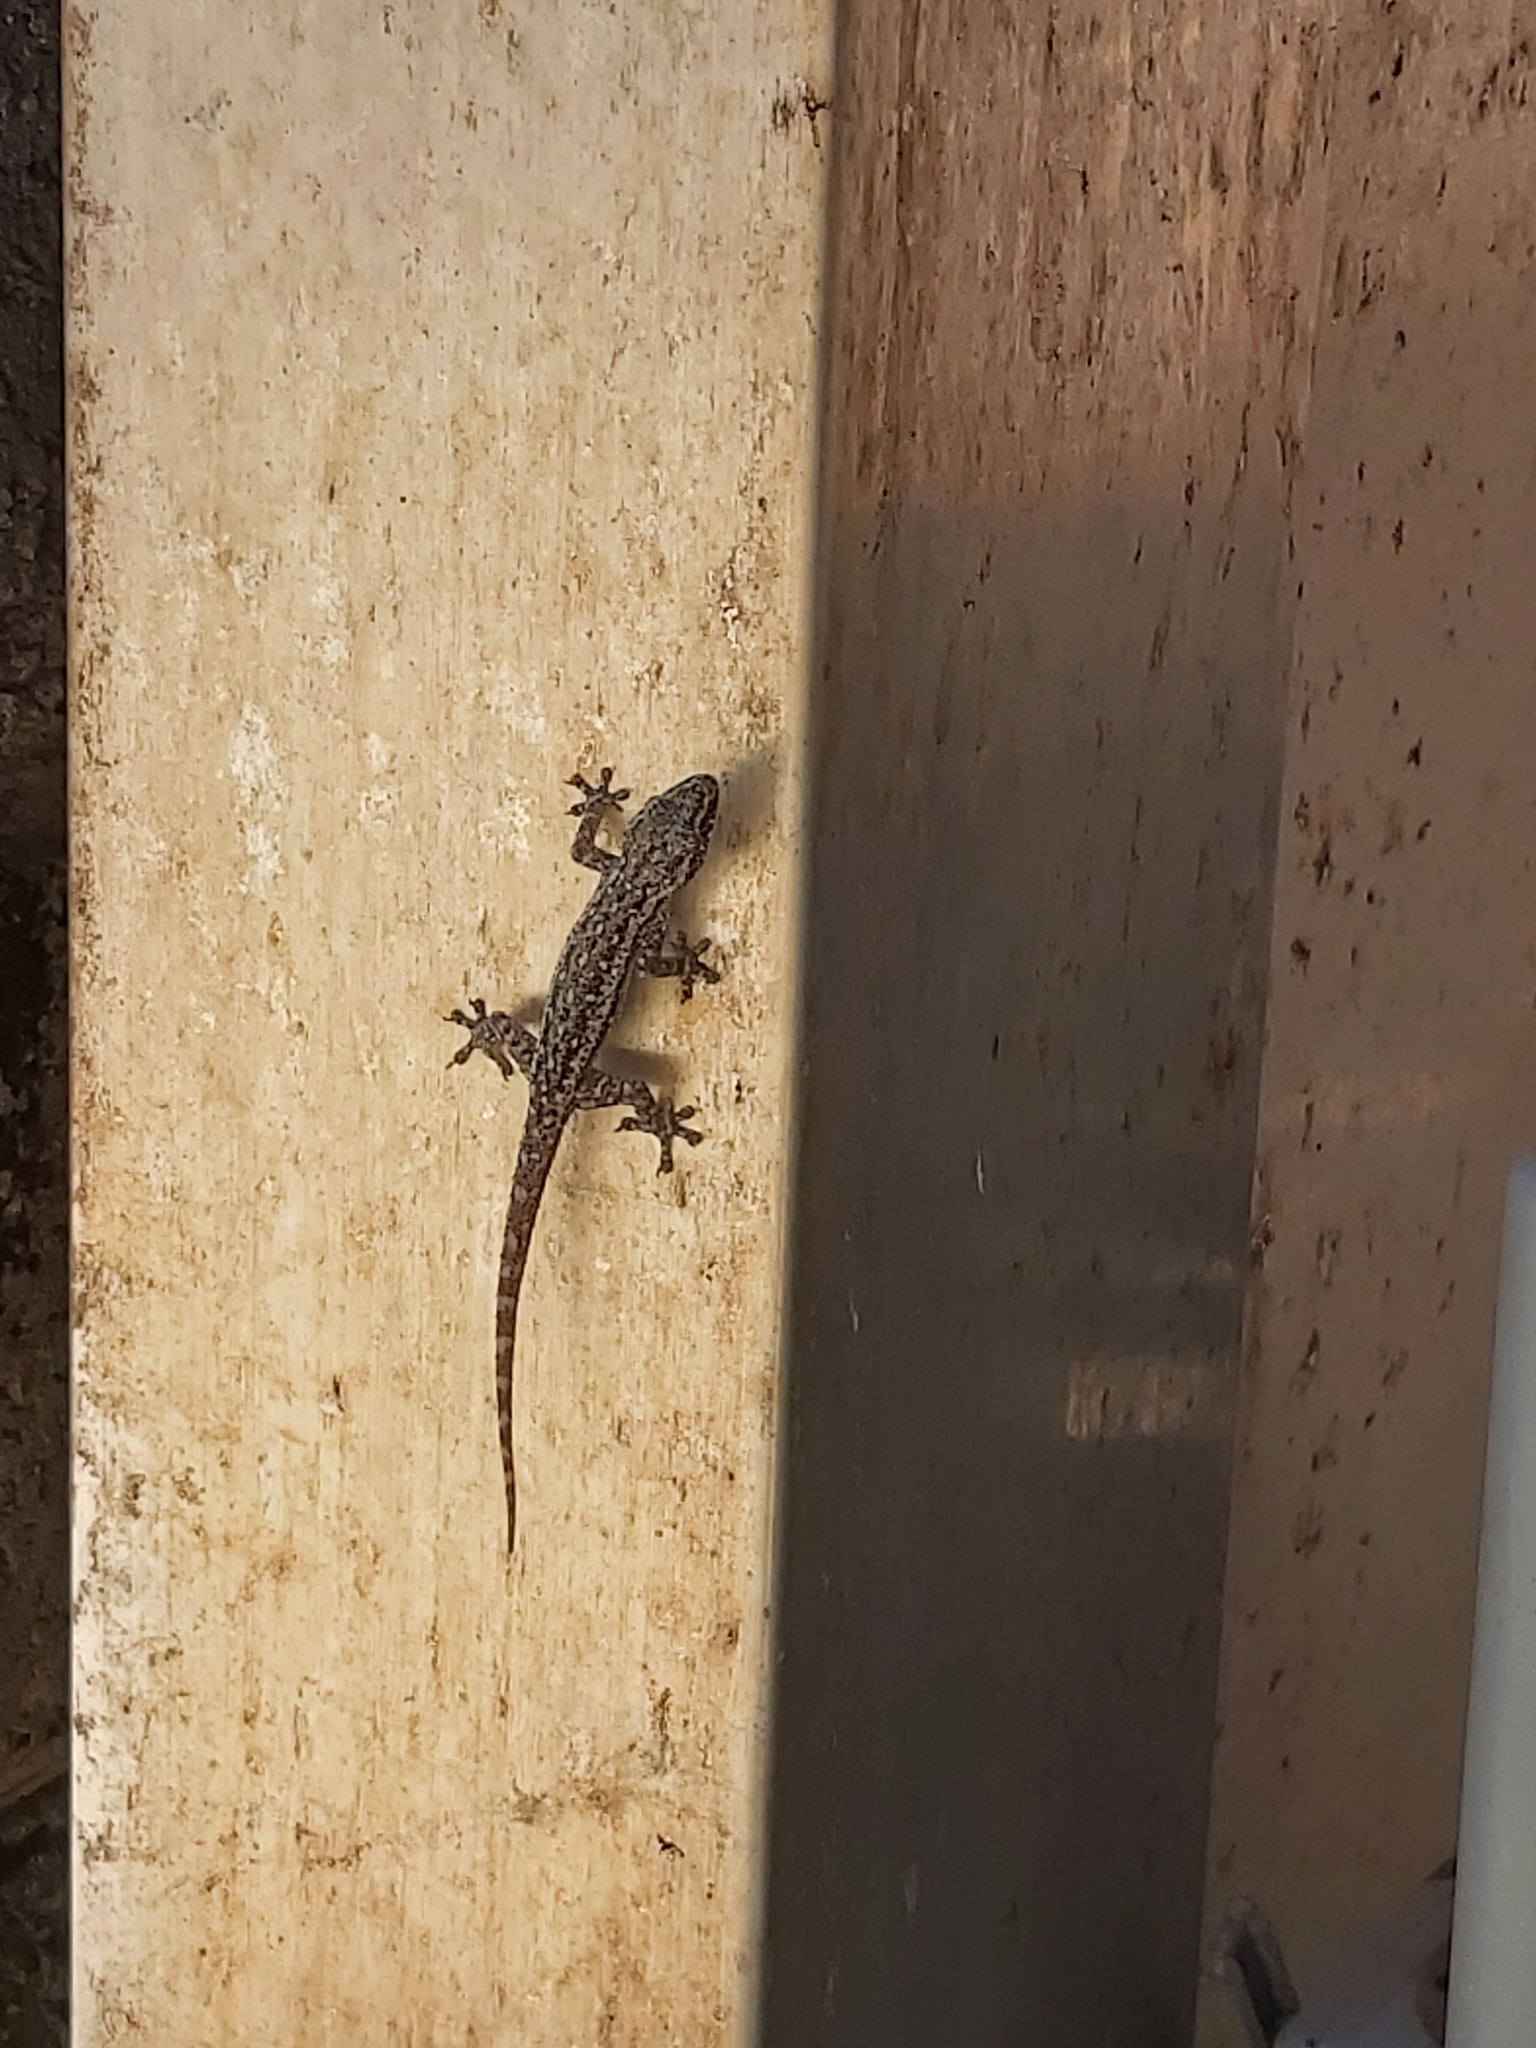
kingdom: Animalia
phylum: Chordata
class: Squamata
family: Gekkonidae
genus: Hemidactylus
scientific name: Hemidactylus frenatus
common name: Common house gecko
